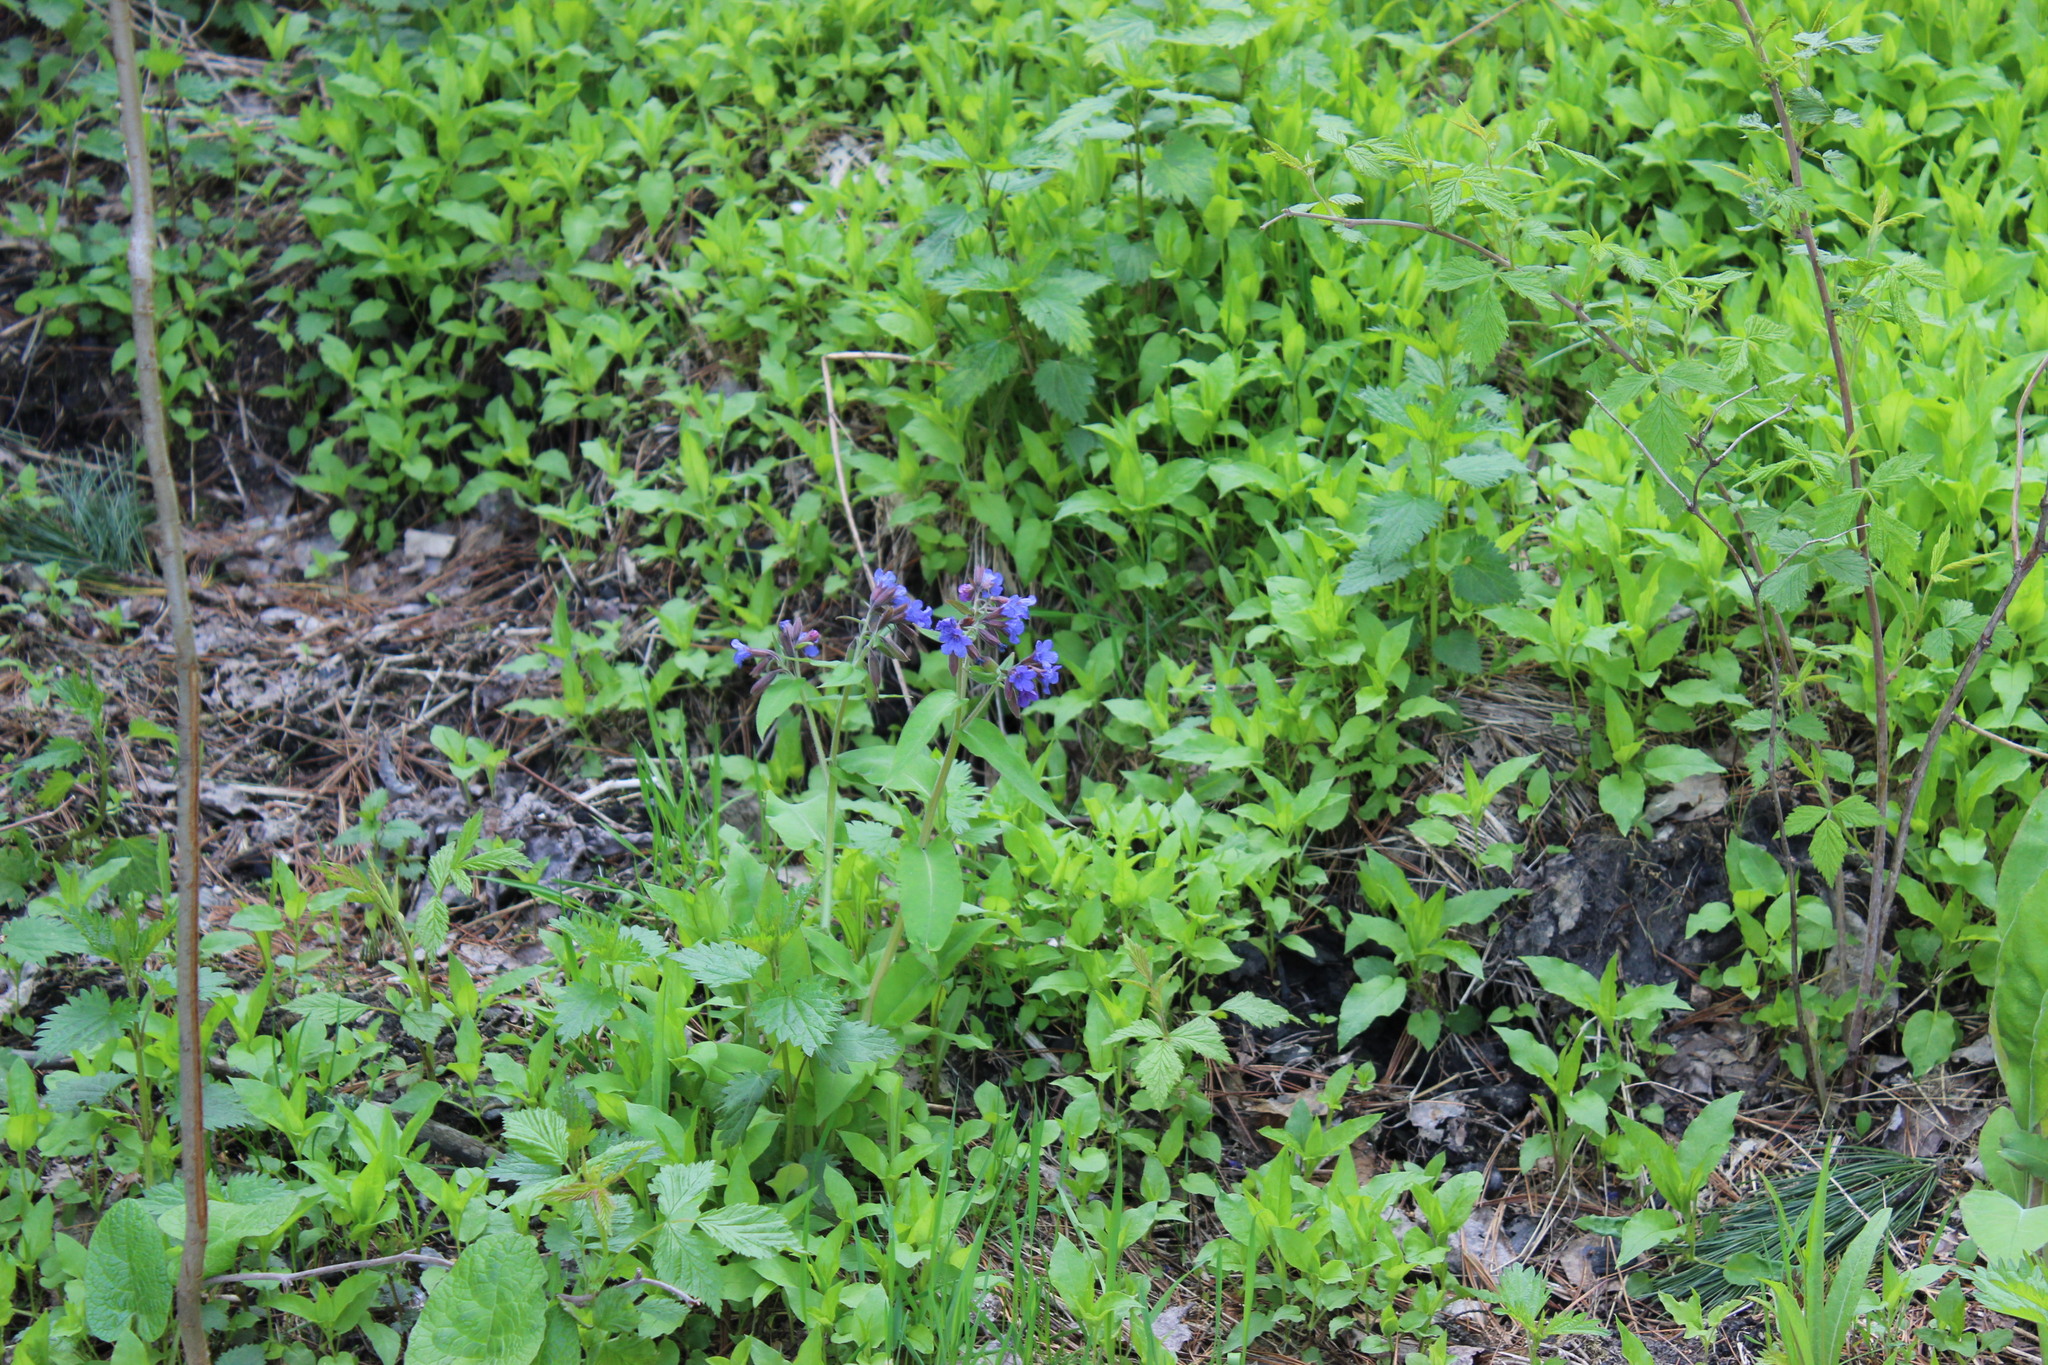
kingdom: Plantae
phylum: Tracheophyta
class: Magnoliopsida
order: Boraginales
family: Boraginaceae
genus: Pulmonaria
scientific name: Pulmonaria mollis
